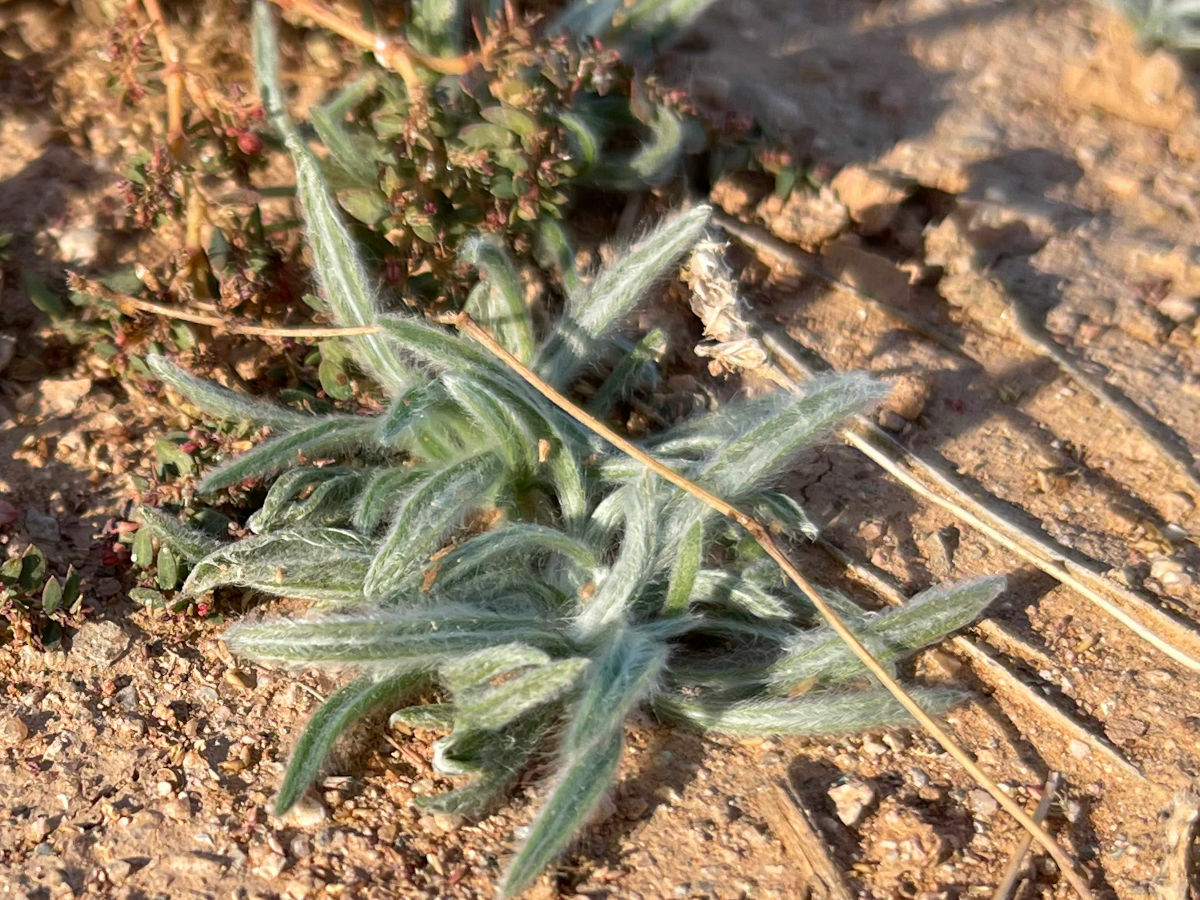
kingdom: Plantae
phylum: Tracheophyta
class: Magnoliopsida
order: Lamiales
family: Plantaginaceae
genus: Plantago
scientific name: Plantago ovata
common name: Blond plantain
